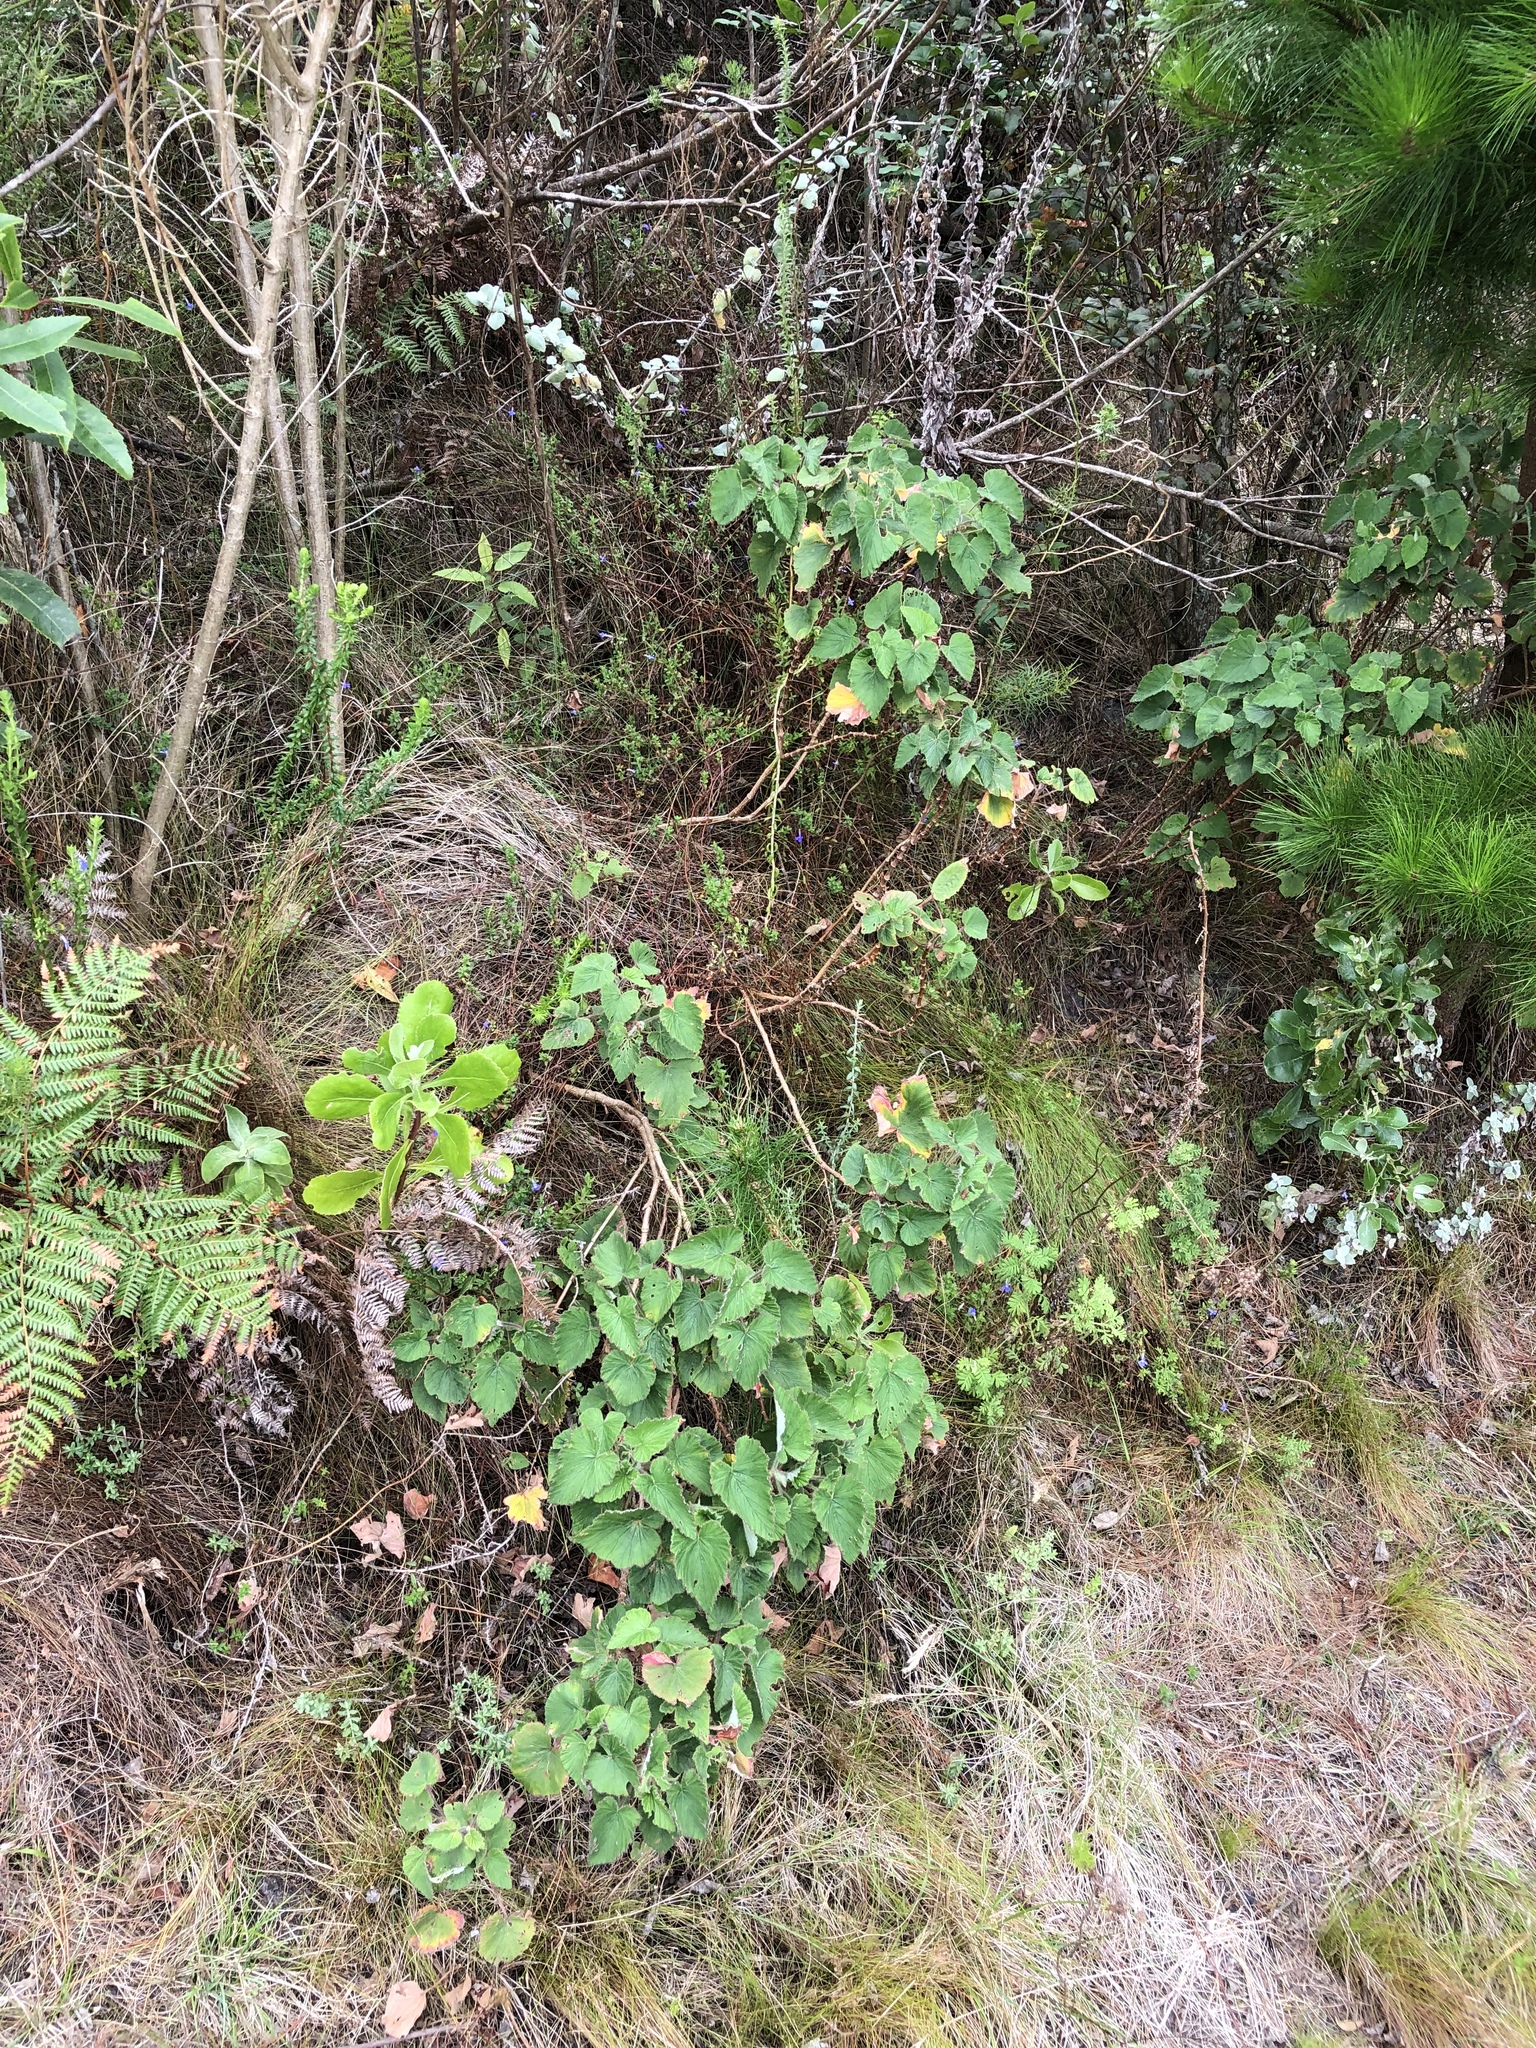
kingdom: Plantae
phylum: Tracheophyta
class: Magnoliopsida
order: Geraniales
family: Geraniaceae
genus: Pelargonium
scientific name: Pelargonium cordifolium
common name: Heart-leaf pelargonium
